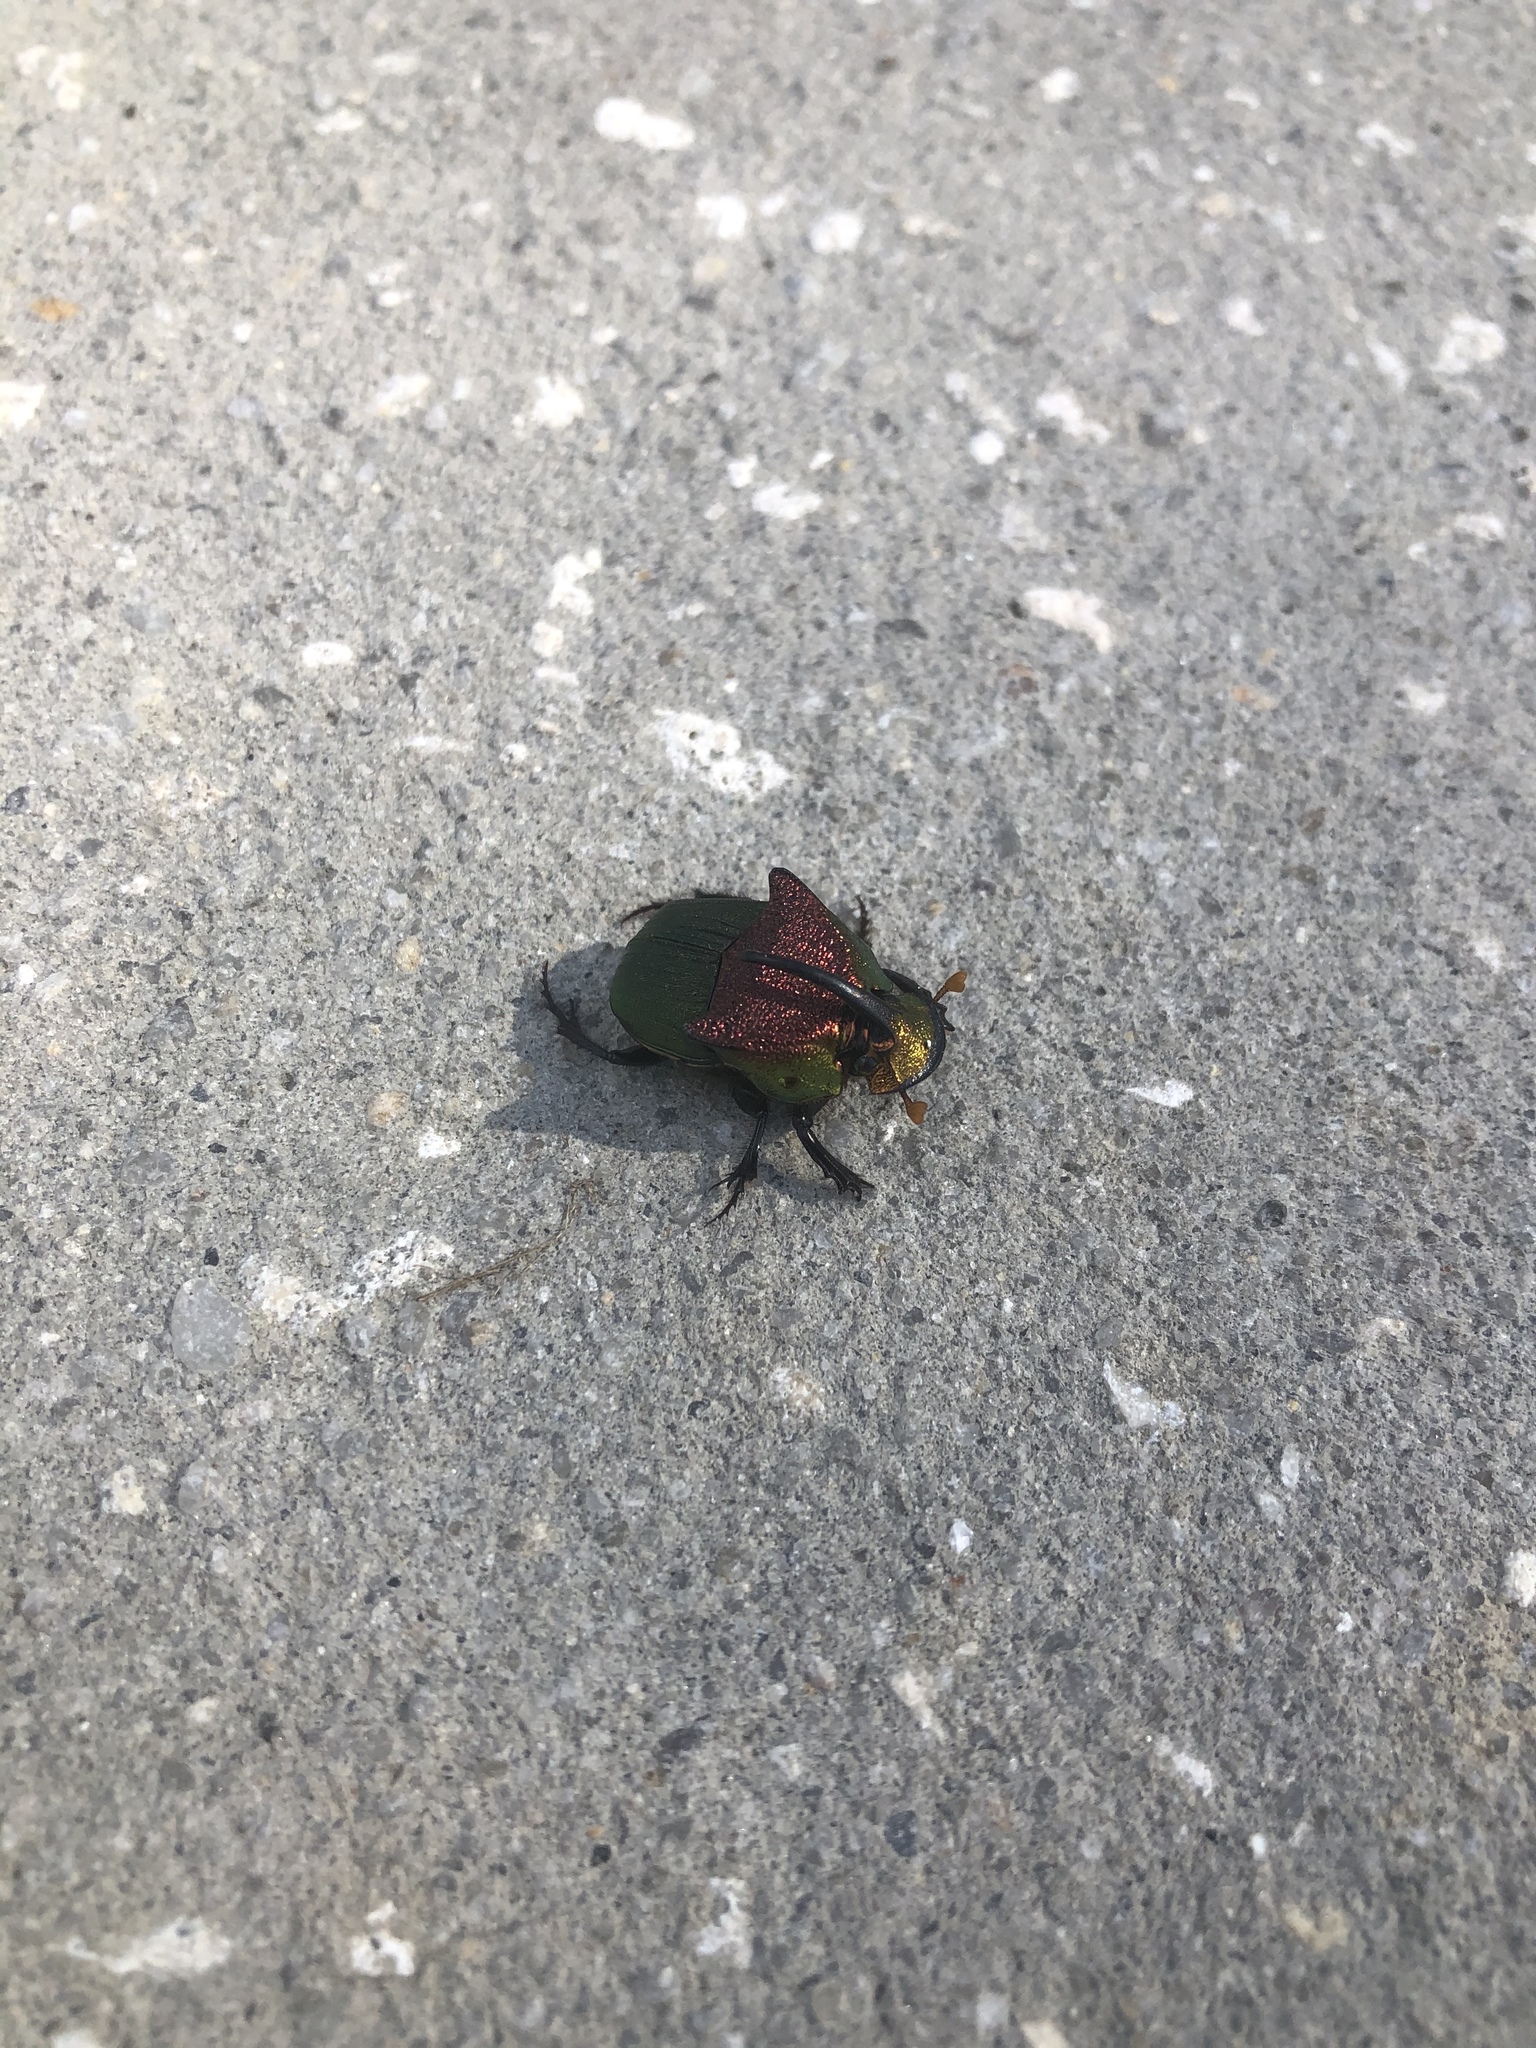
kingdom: Animalia
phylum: Arthropoda
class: Insecta
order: Coleoptera
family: Scarabaeidae
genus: Phanaeus
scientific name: Phanaeus vindex
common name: Rainbow scarab
